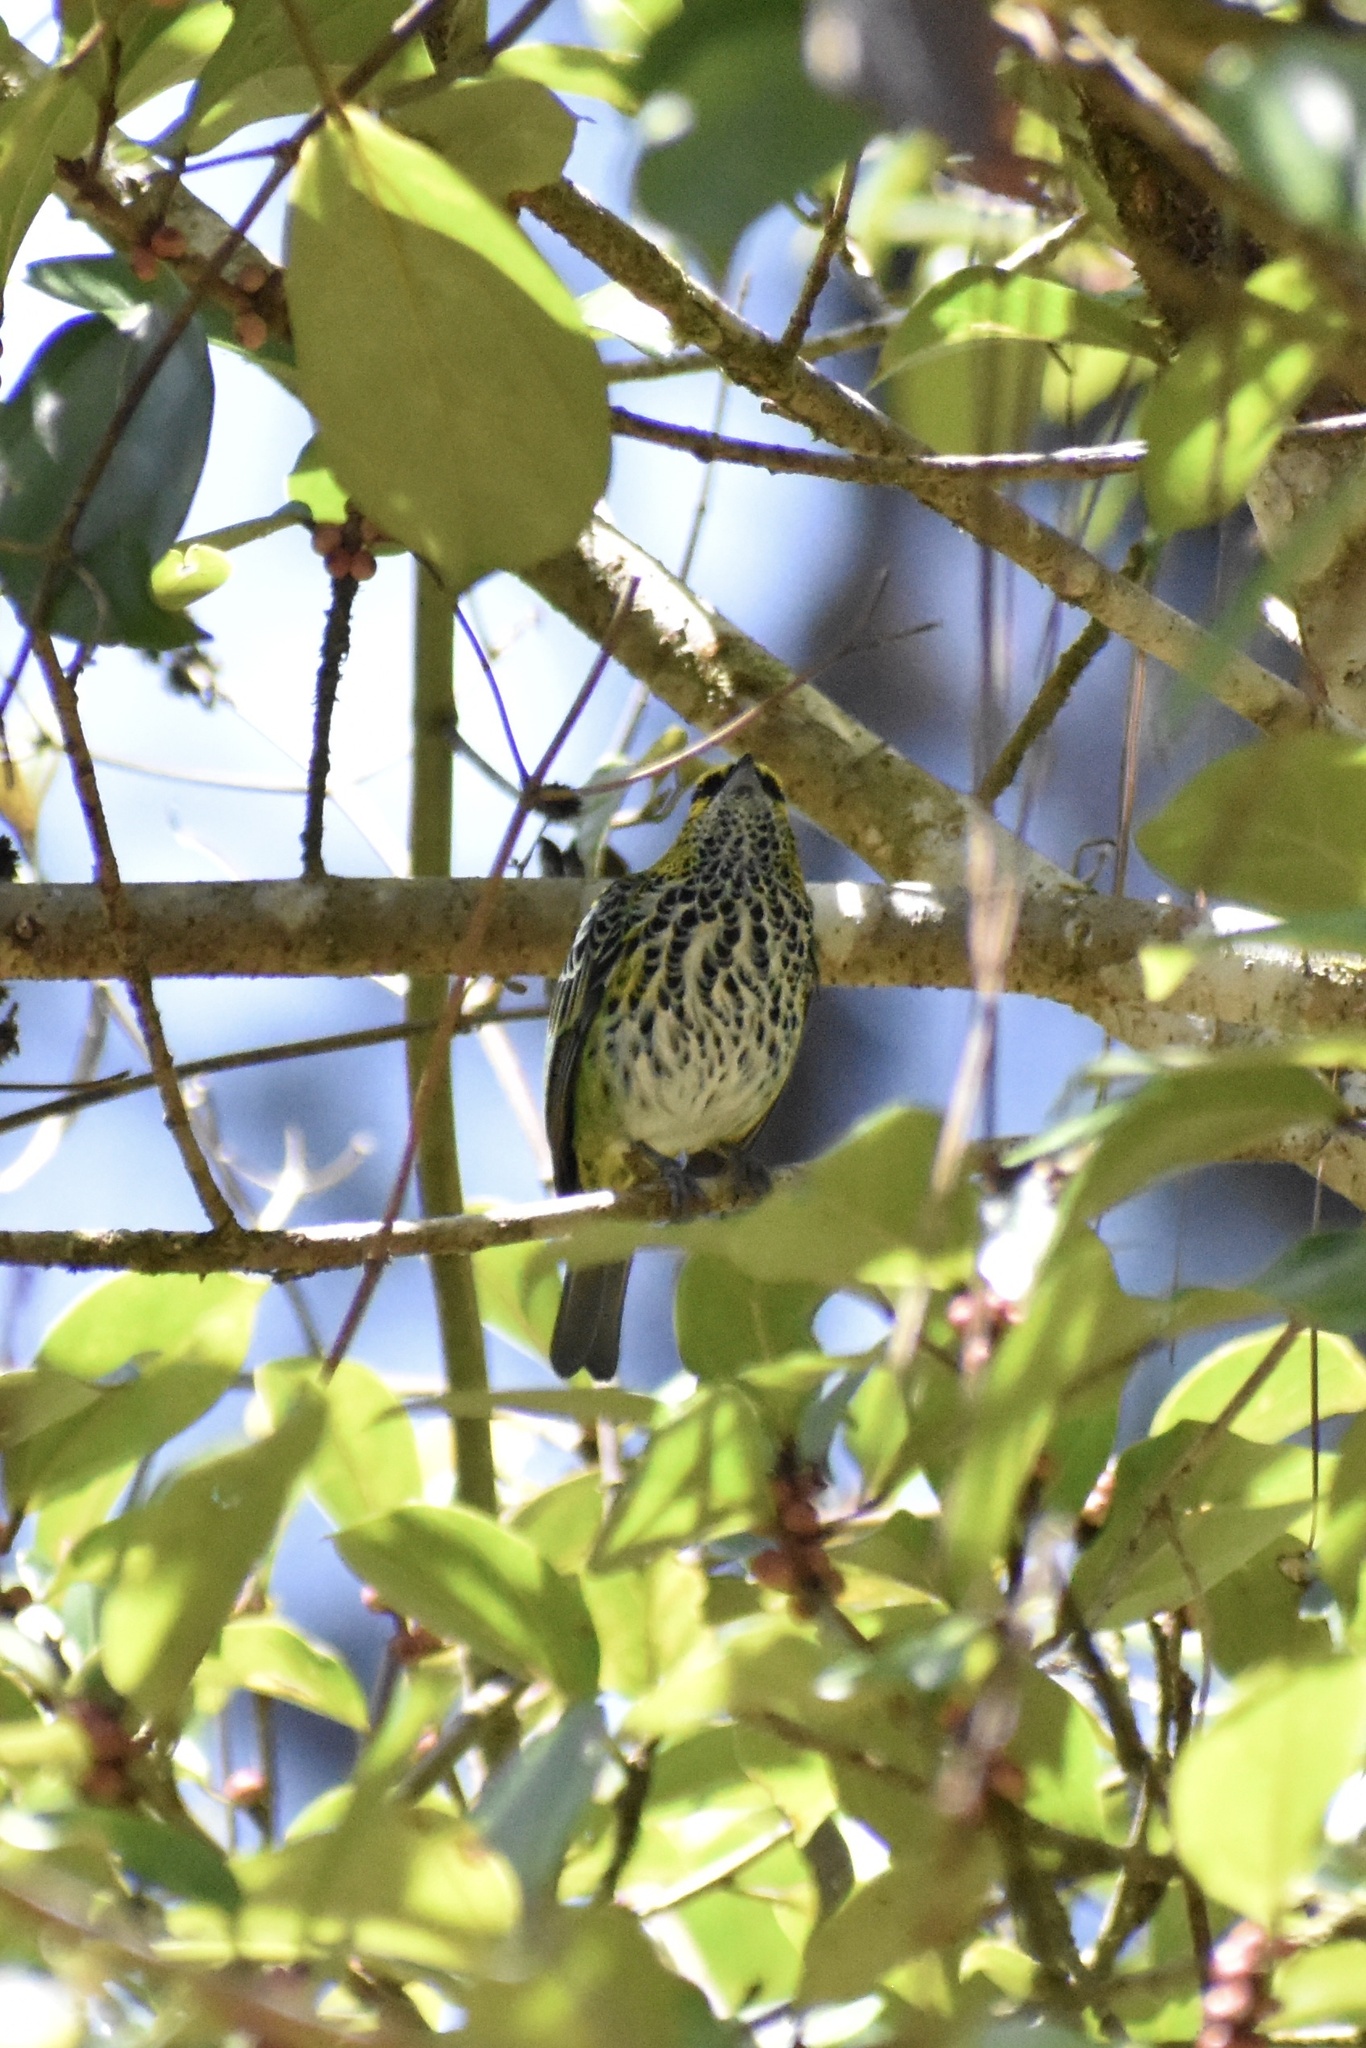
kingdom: Animalia
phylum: Chordata
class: Aves
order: Passeriformes
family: Thraupidae
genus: Ixothraupis
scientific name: Ixothraupis guttata
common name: Speckled tanager
